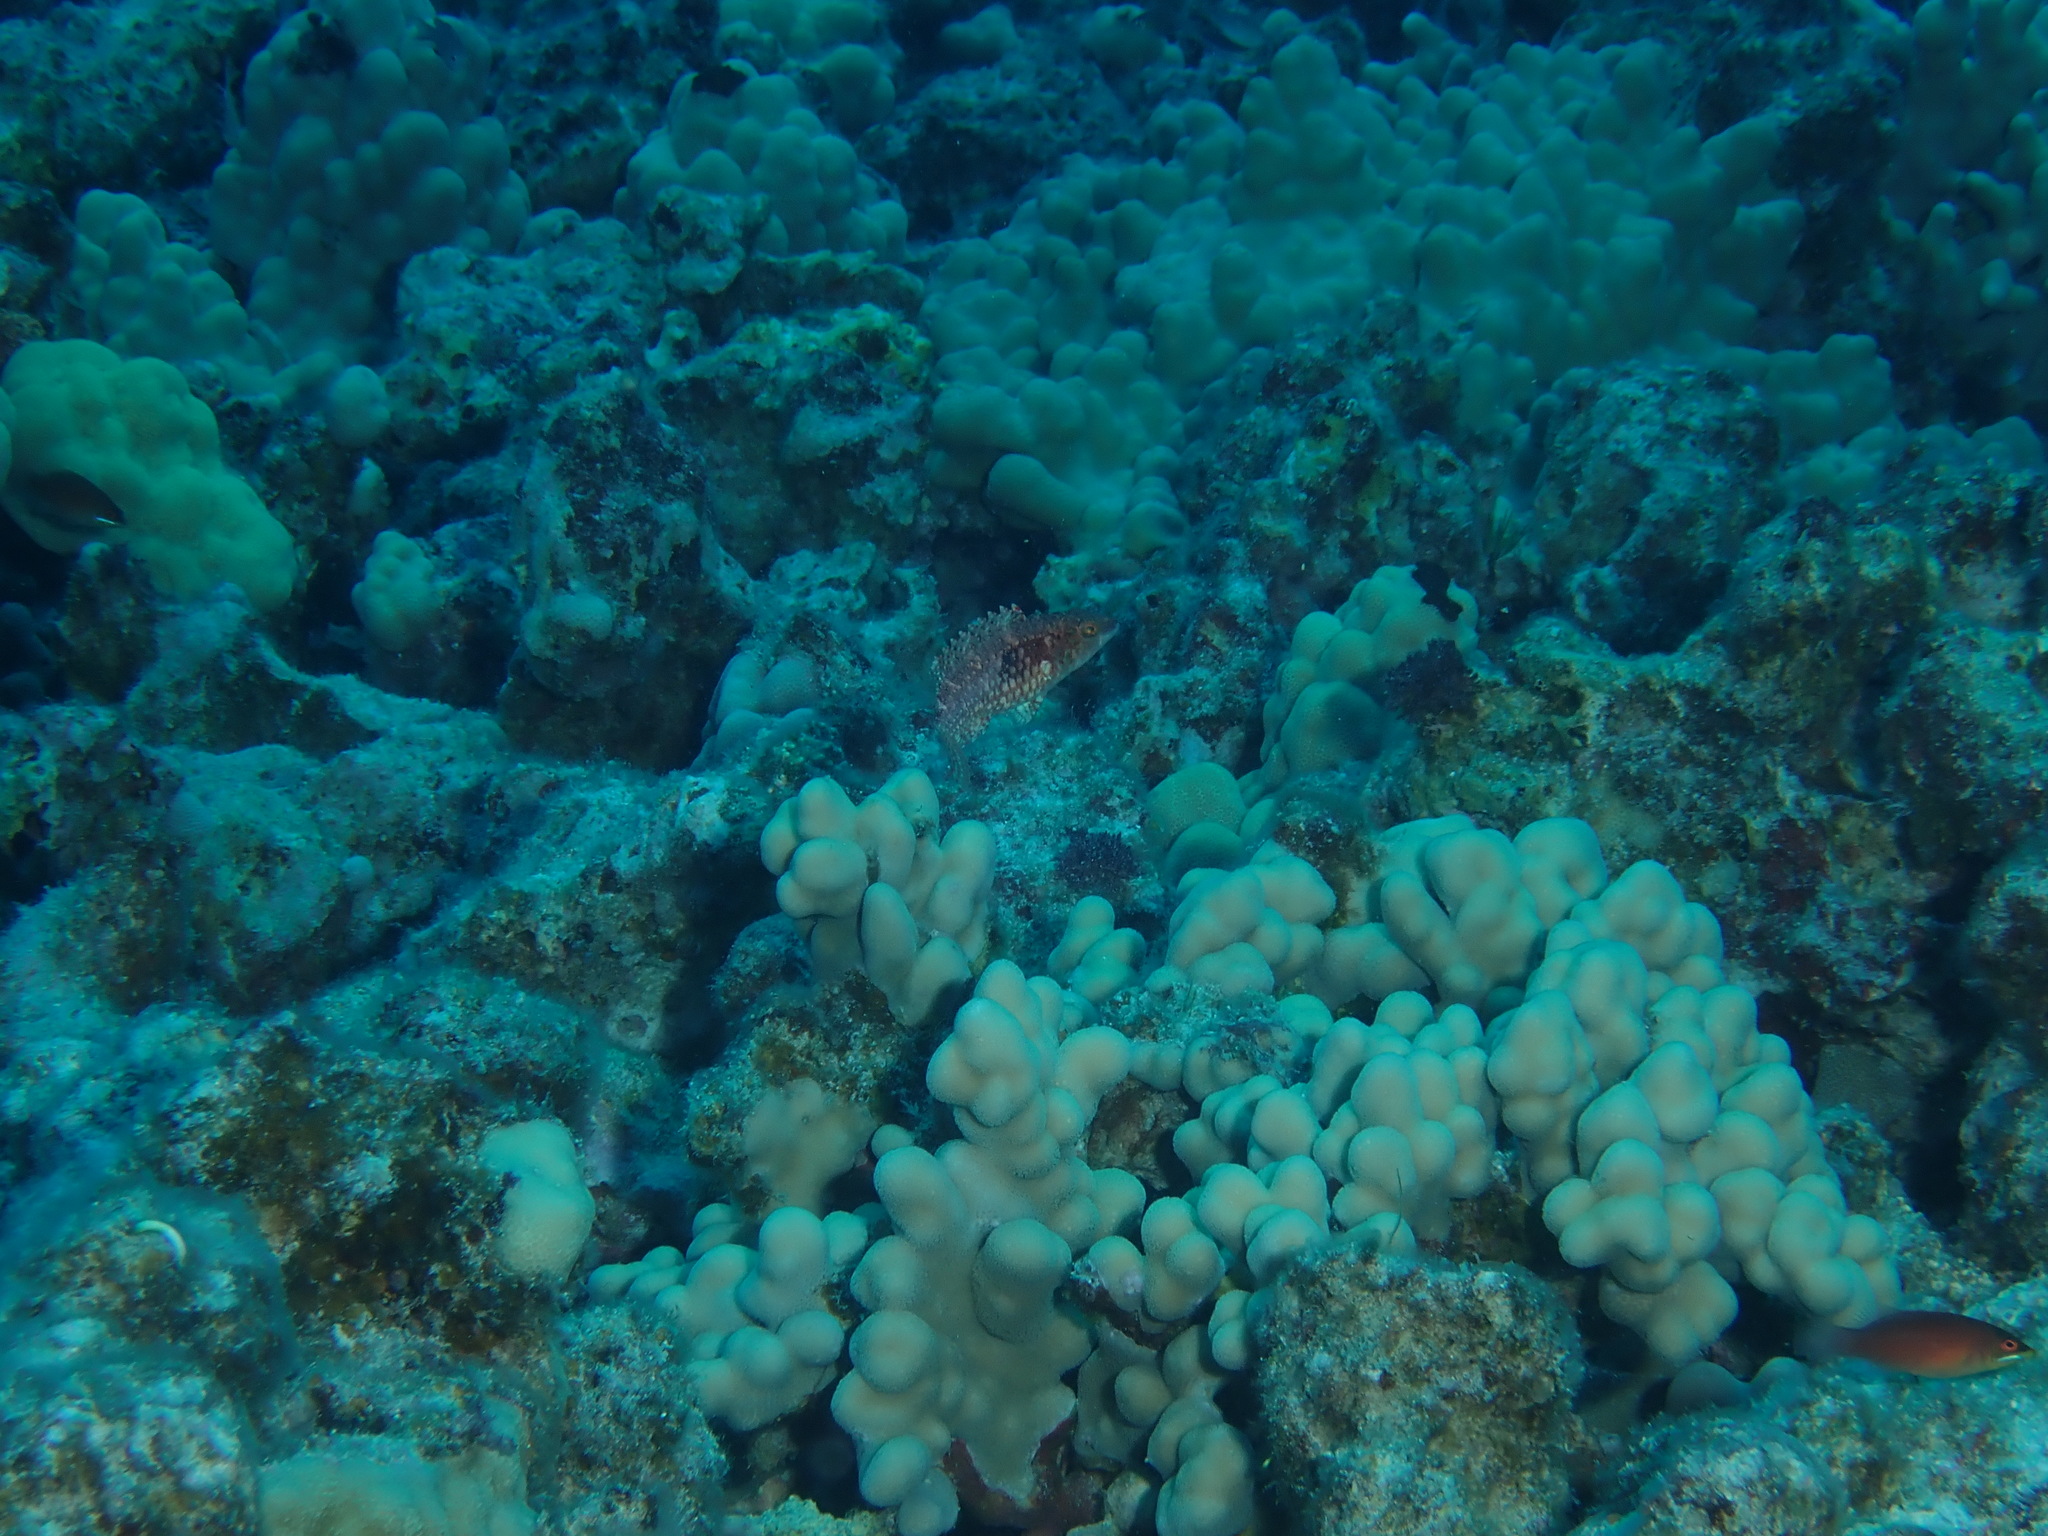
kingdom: Animalia
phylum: Chordata
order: Perciformes
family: Labridae
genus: Oxycheilinus
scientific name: Oxycheilinus bimaculatus
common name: Comettailed wrasse
